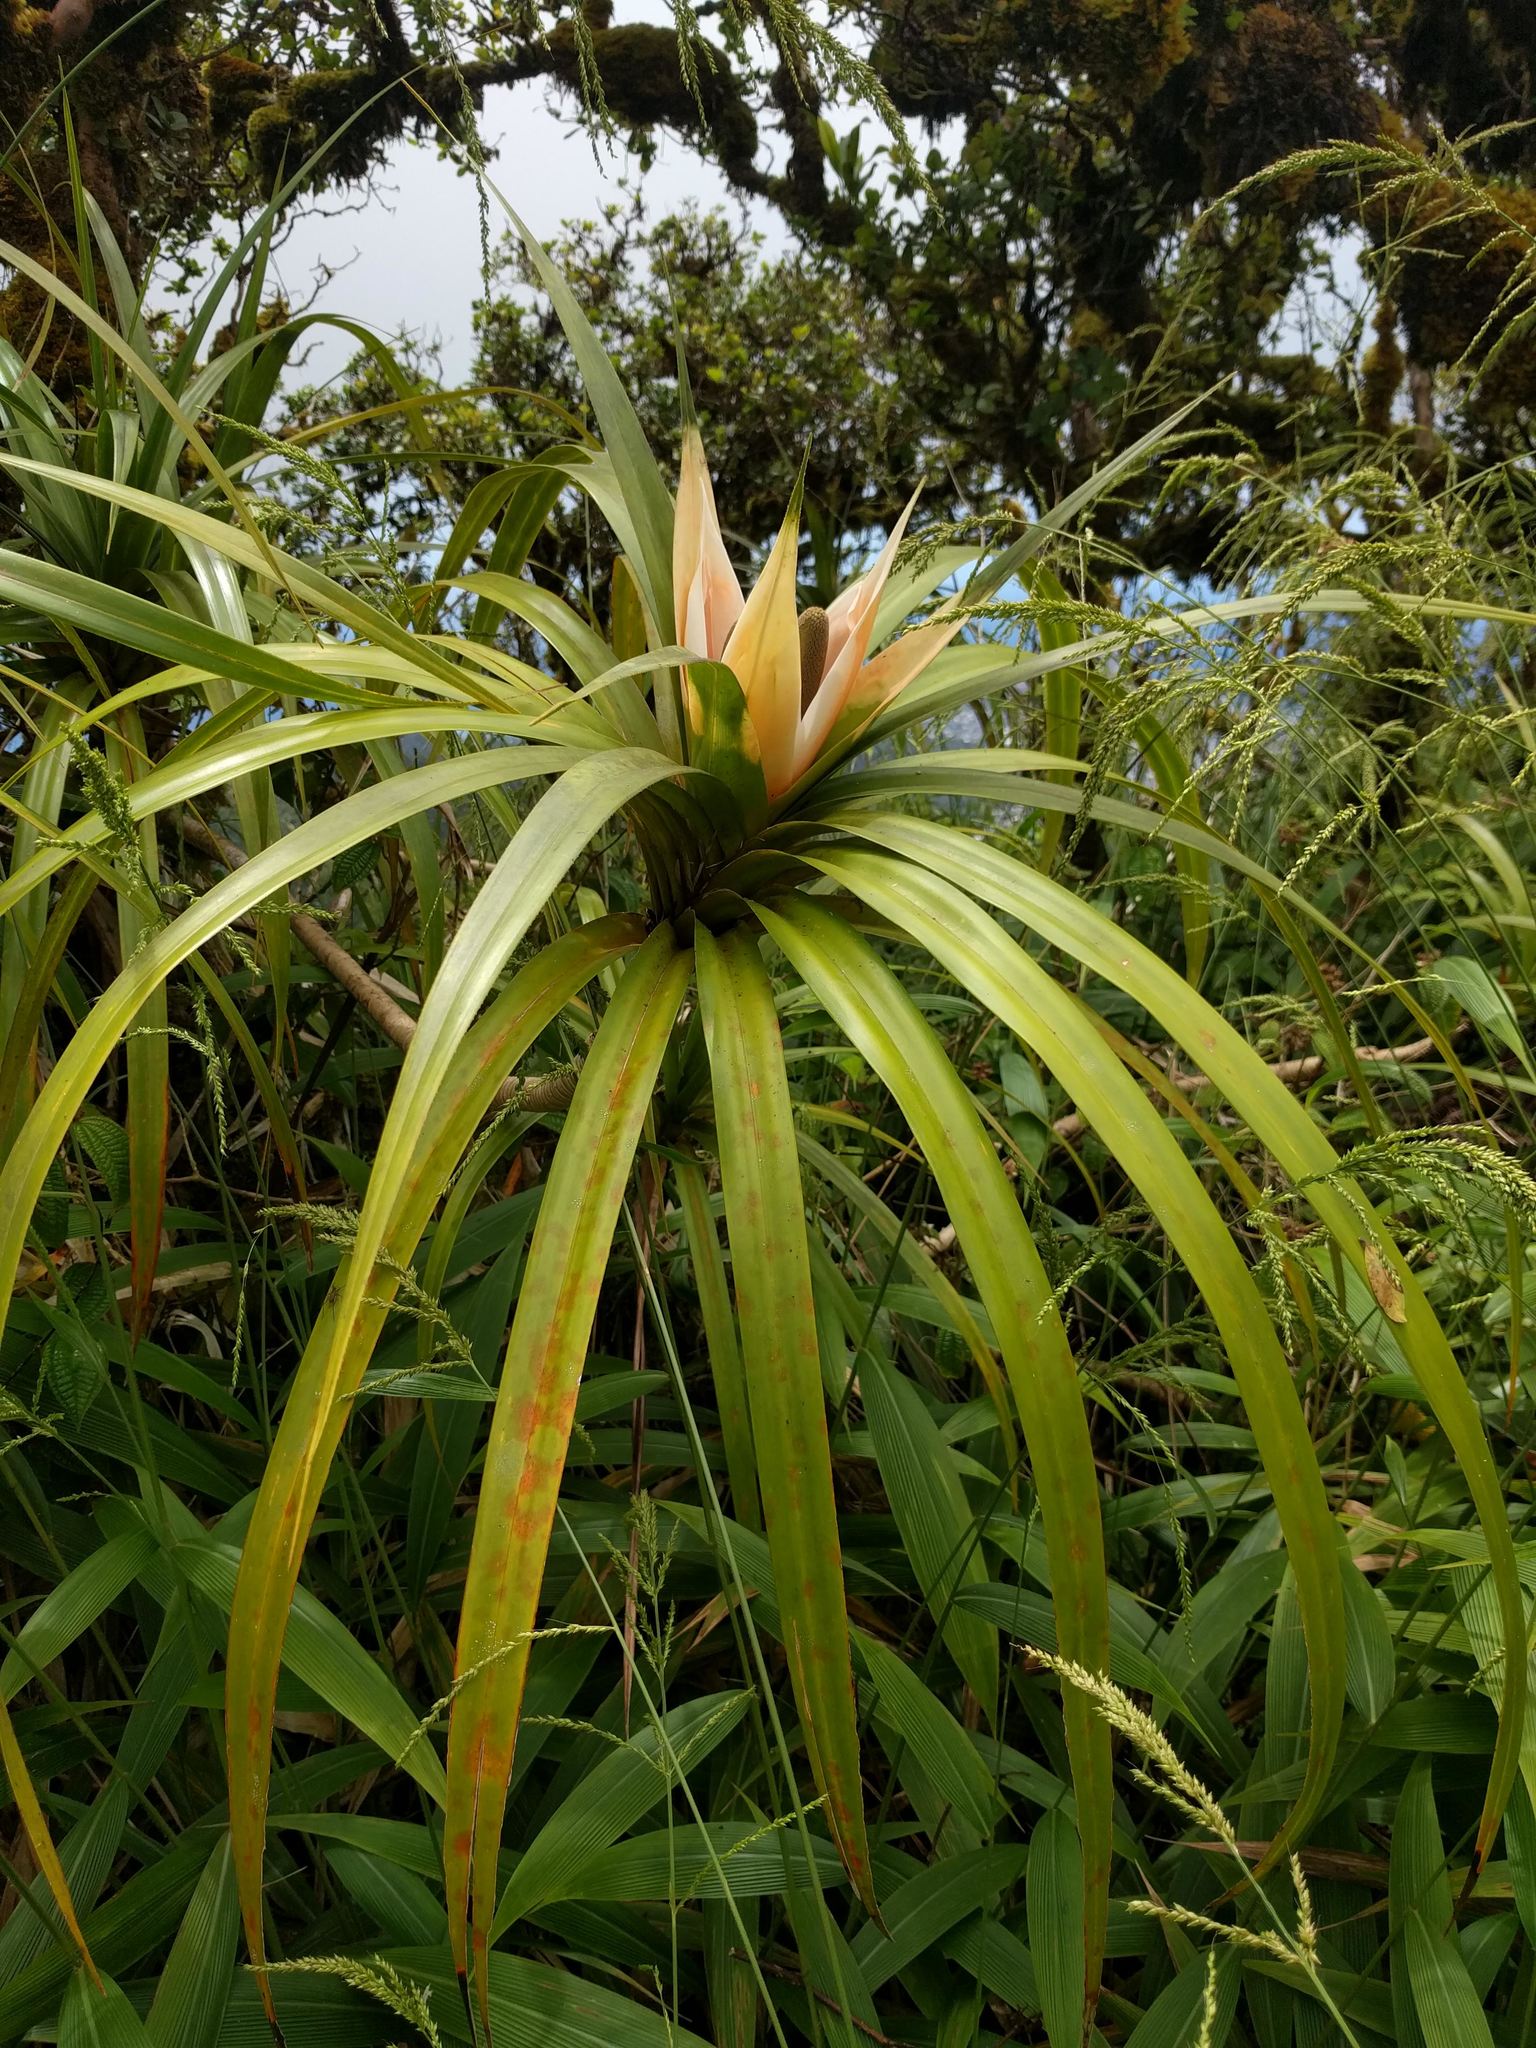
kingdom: Plantae
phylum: Tracheophyta
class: Liliopsida
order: Pandanales
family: Pandanaceae
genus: Freycinetia
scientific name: Freycinetia arborea
